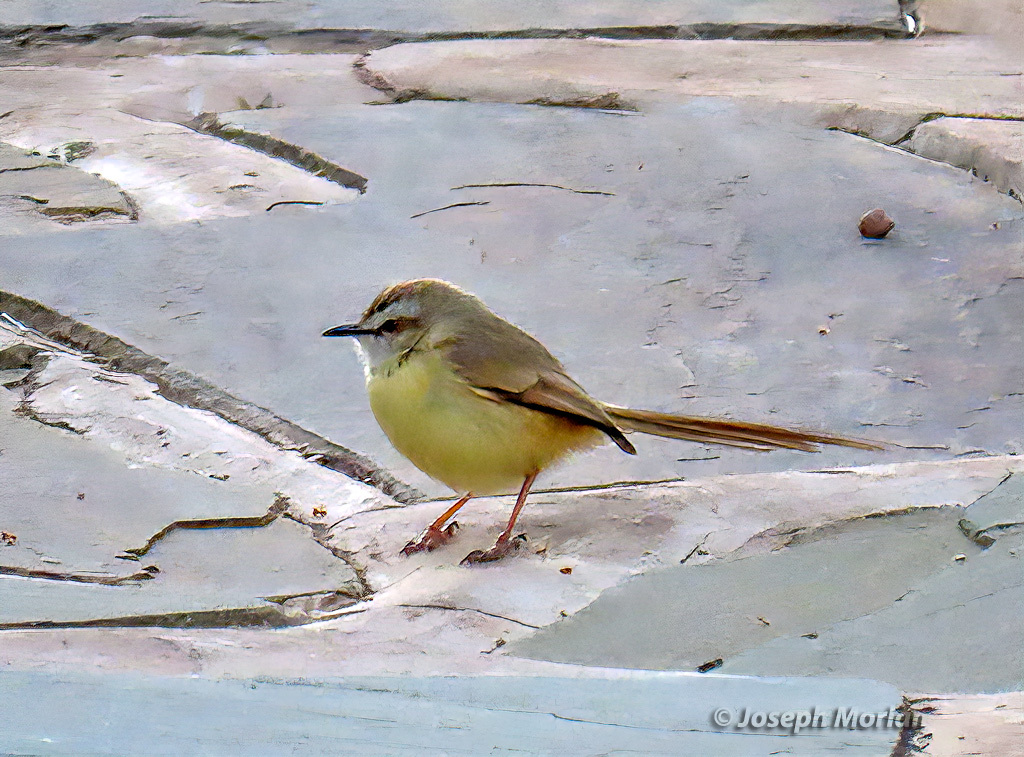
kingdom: Animalia
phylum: Chordata
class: Aves
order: Passeriformes
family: Cisticolidae
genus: Prinia
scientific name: Prinia flavicans
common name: Black-chested prinia
